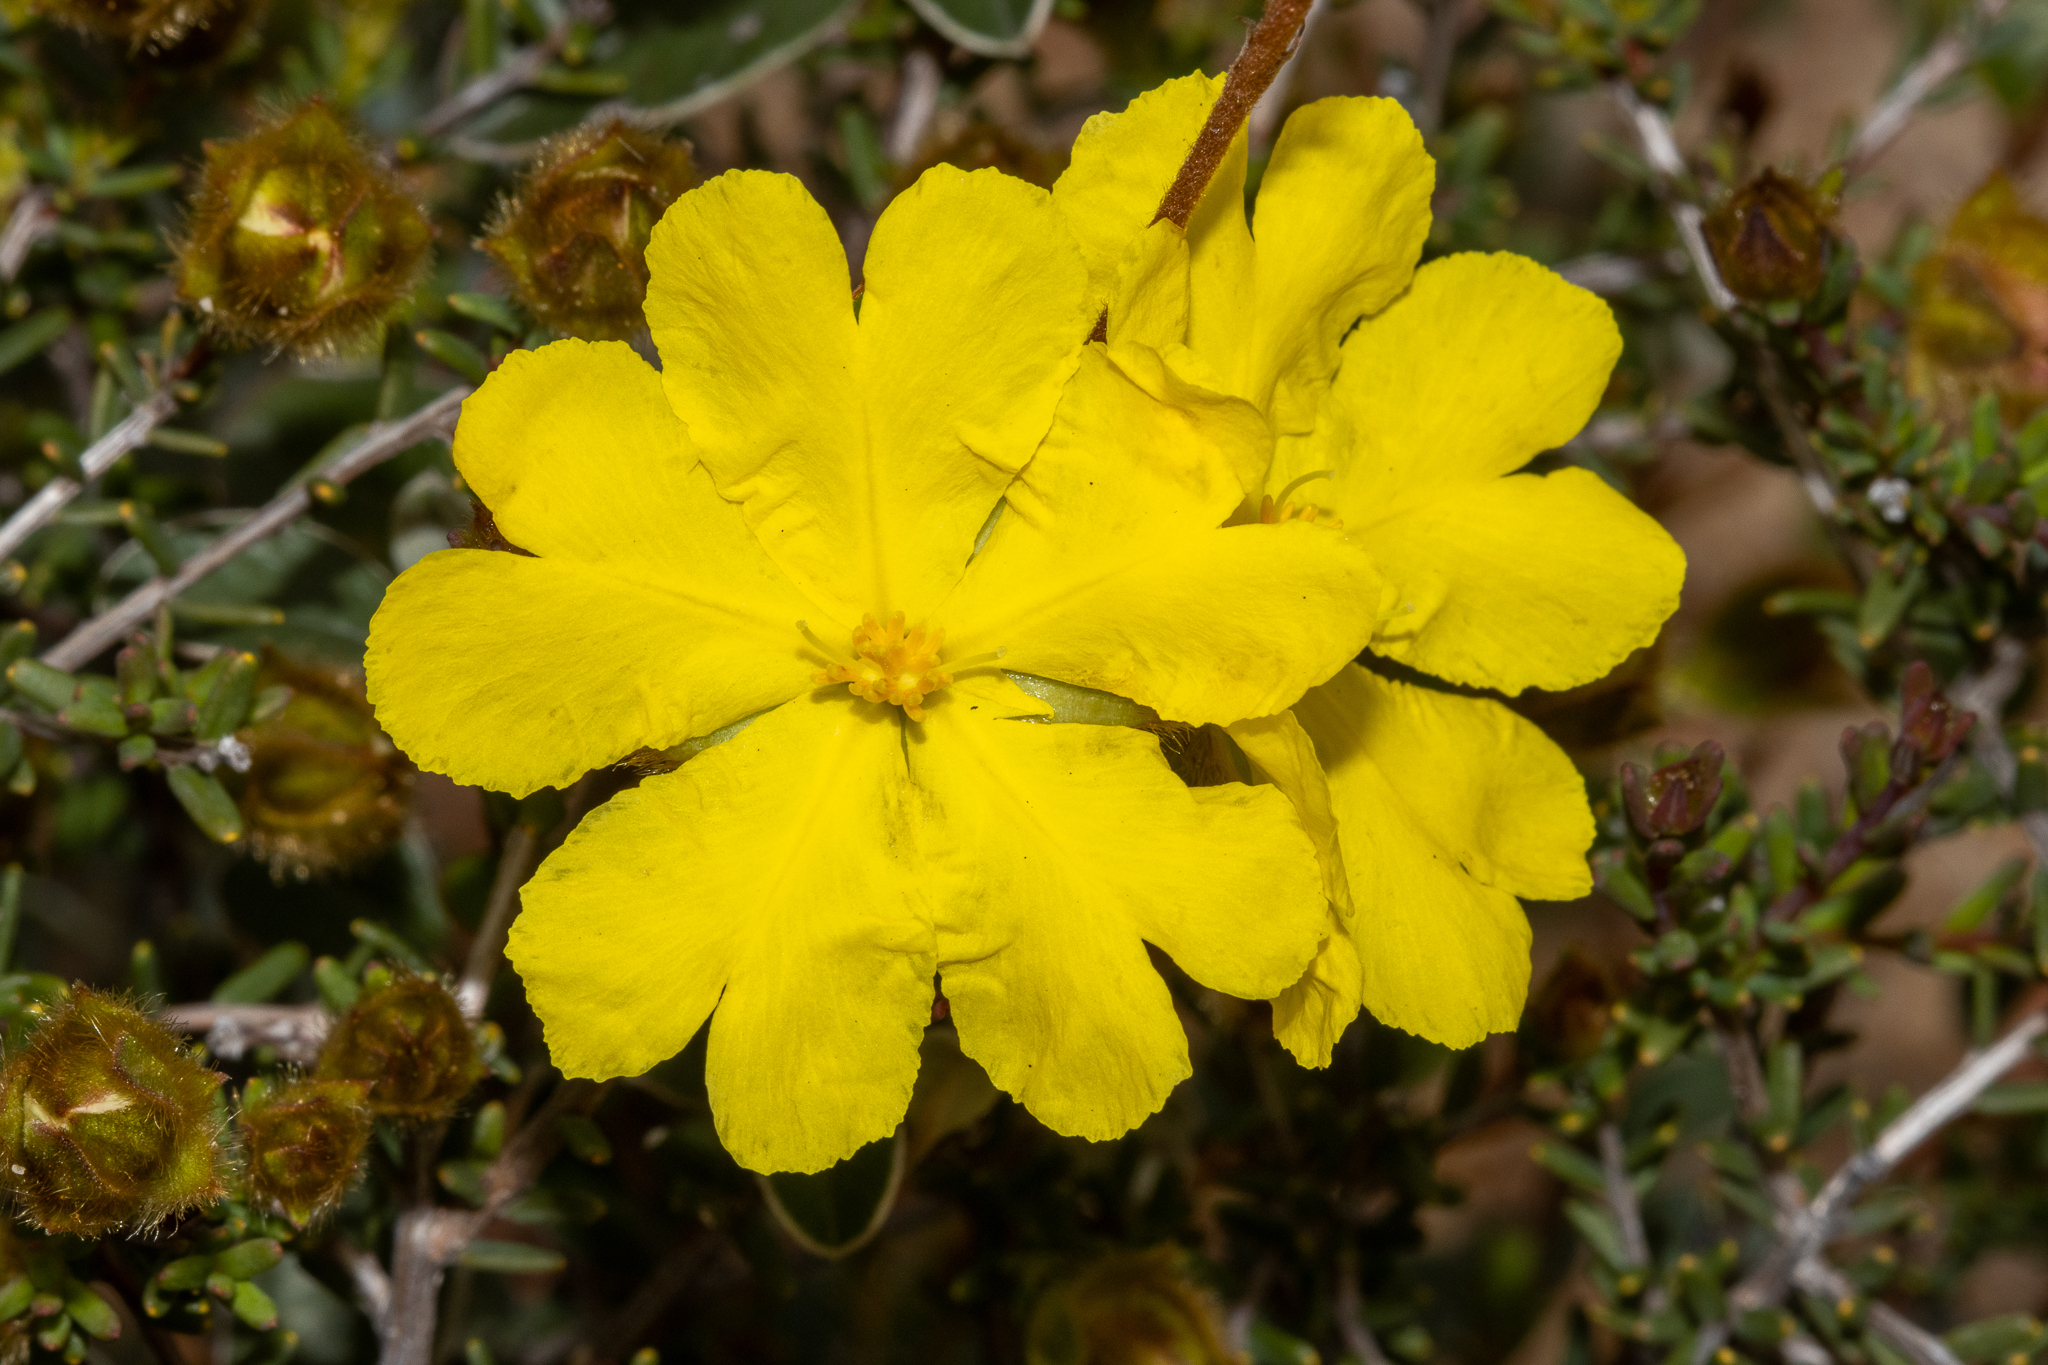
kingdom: Plantae
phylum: Tracheophyta
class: Magnoliopsida
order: Dilleniales
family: Dilleniaceae
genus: Hibbertia
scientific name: Hibbertia drummondii
